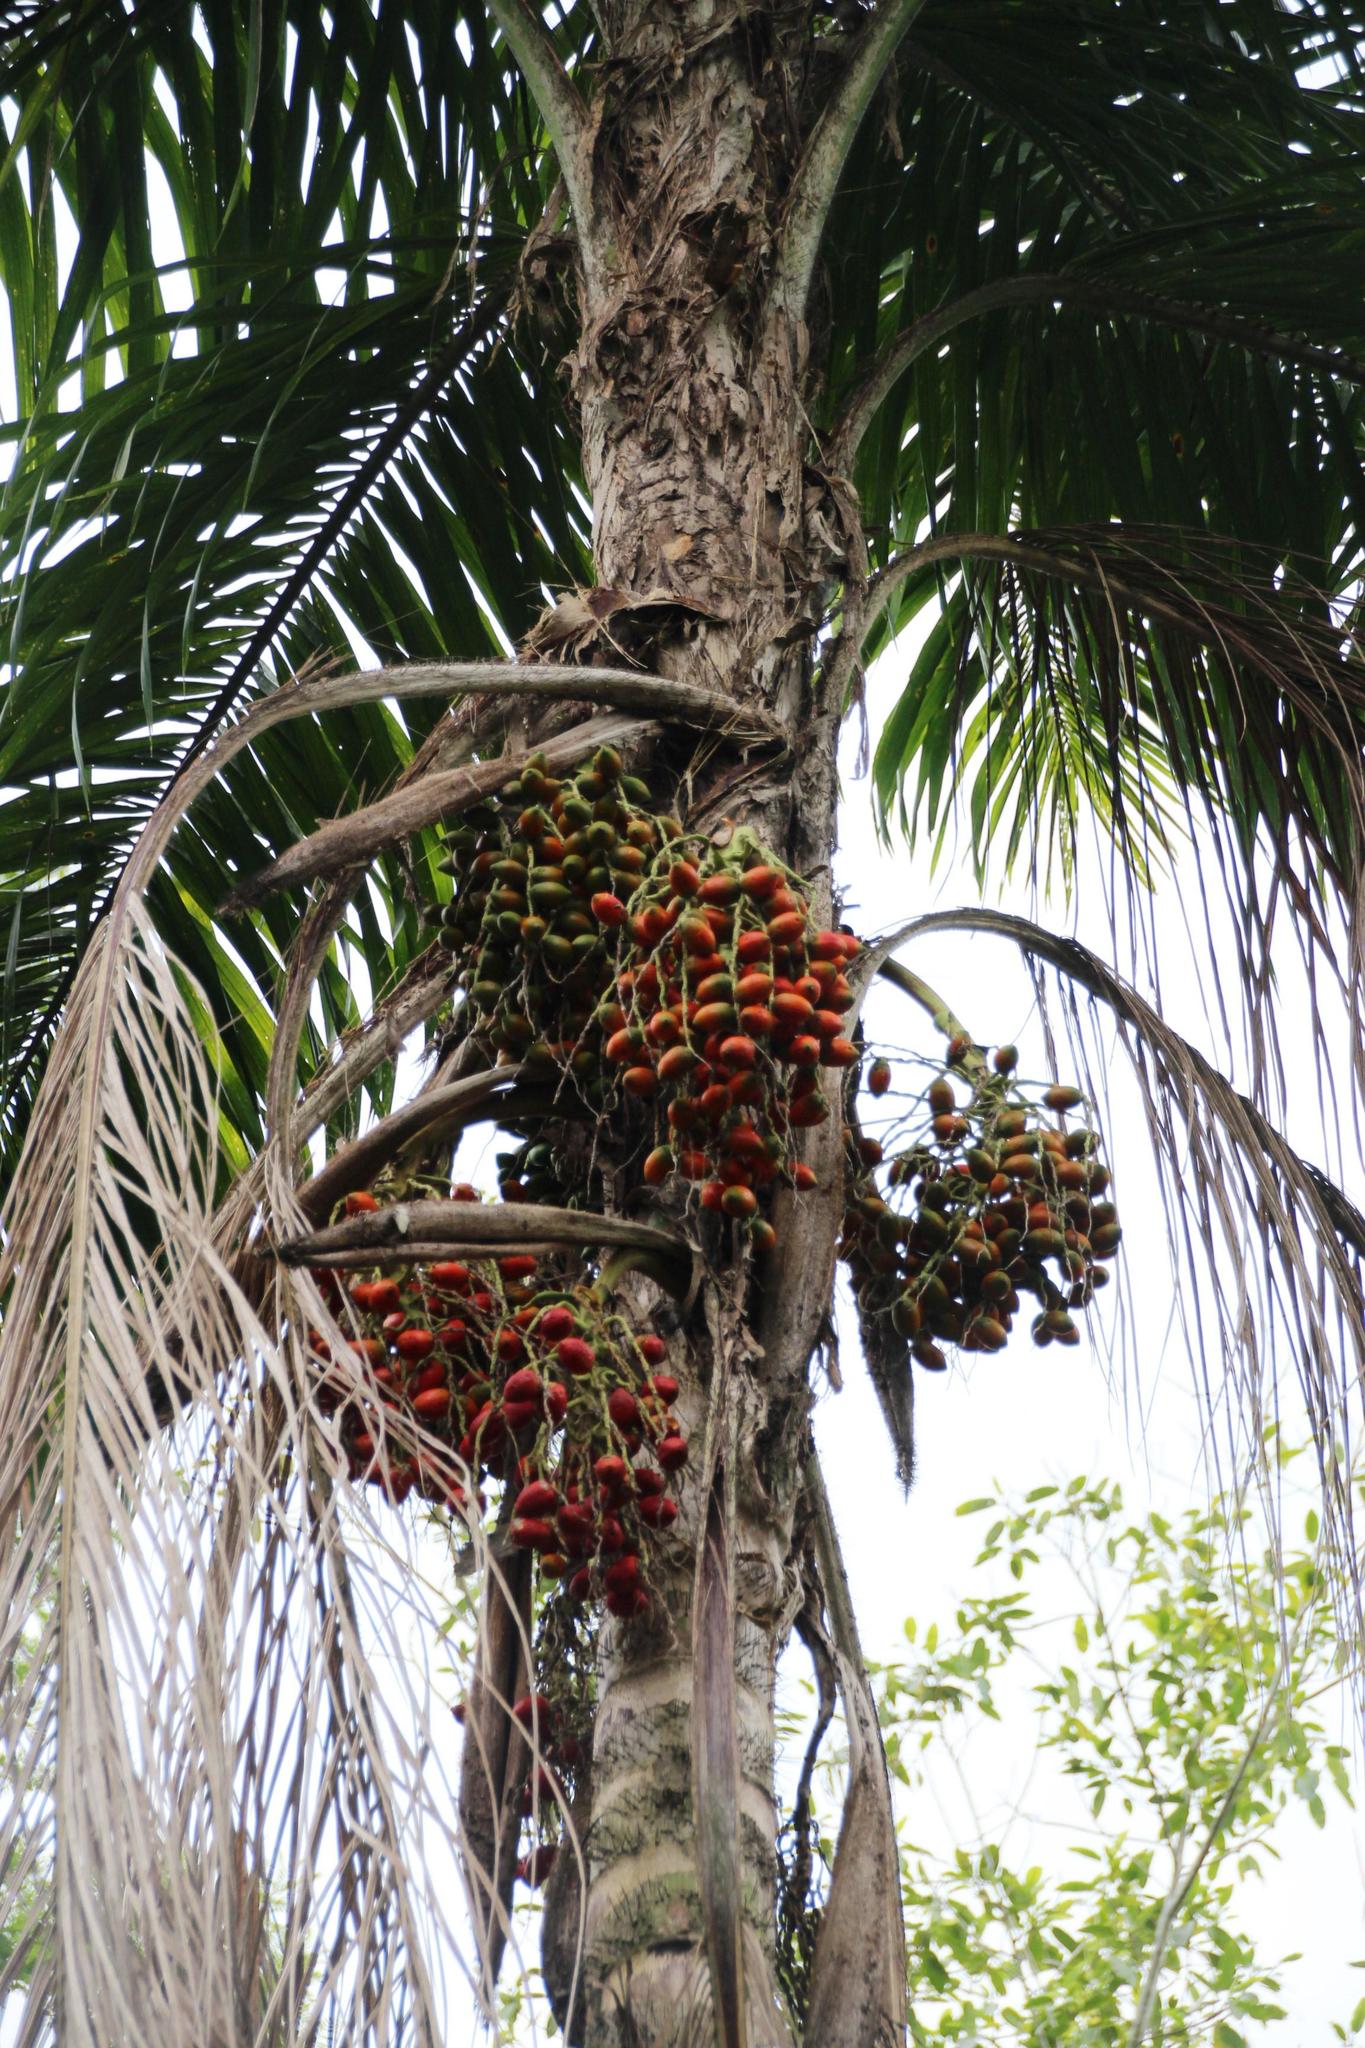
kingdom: Plantae
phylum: Tracheophyta
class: Liliopsida
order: Arecales
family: Arecaceae
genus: Bactris
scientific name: Bactris gasipaes
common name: Peach palm
